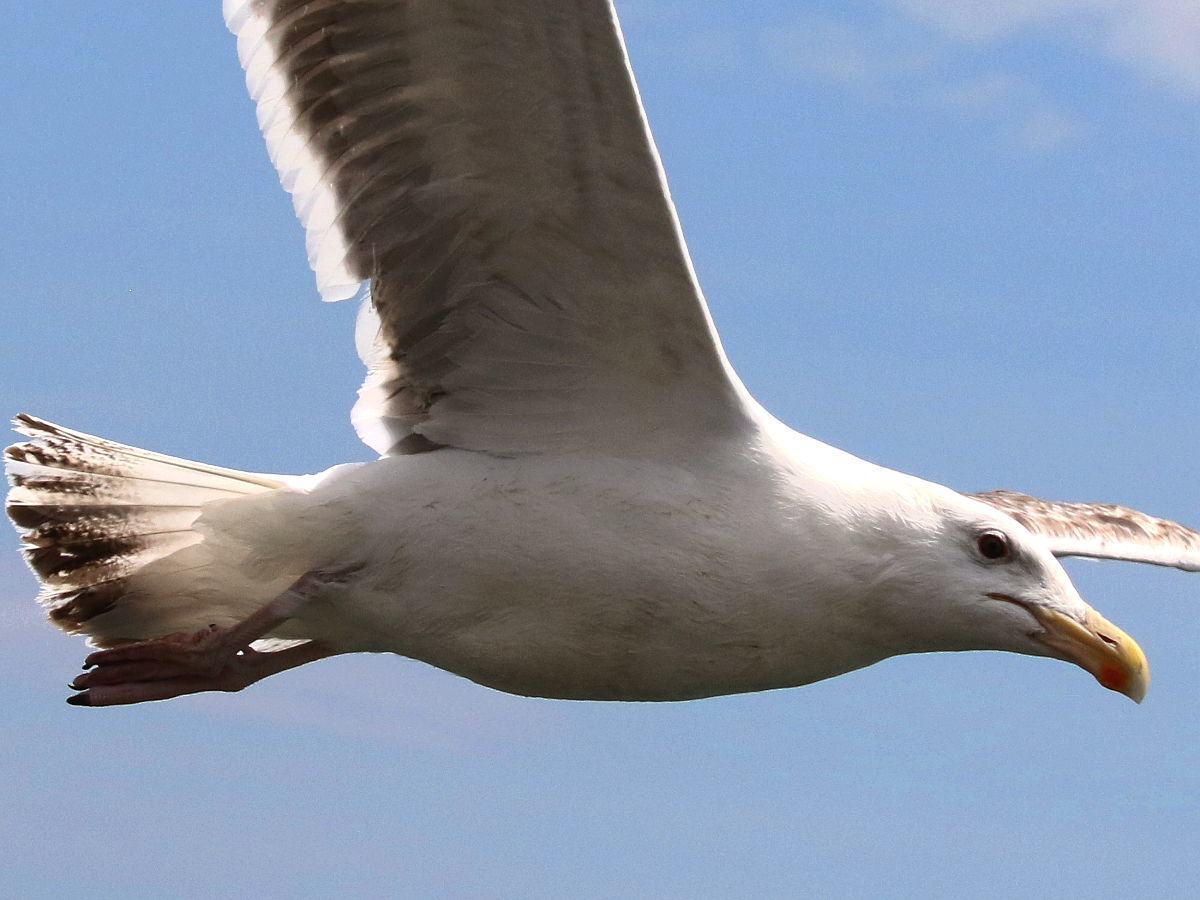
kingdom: Animalia
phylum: Chordata
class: Aves
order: Charadriiformes
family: Laridae
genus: Larus
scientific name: Larus marinus
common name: Great black-backed gull
